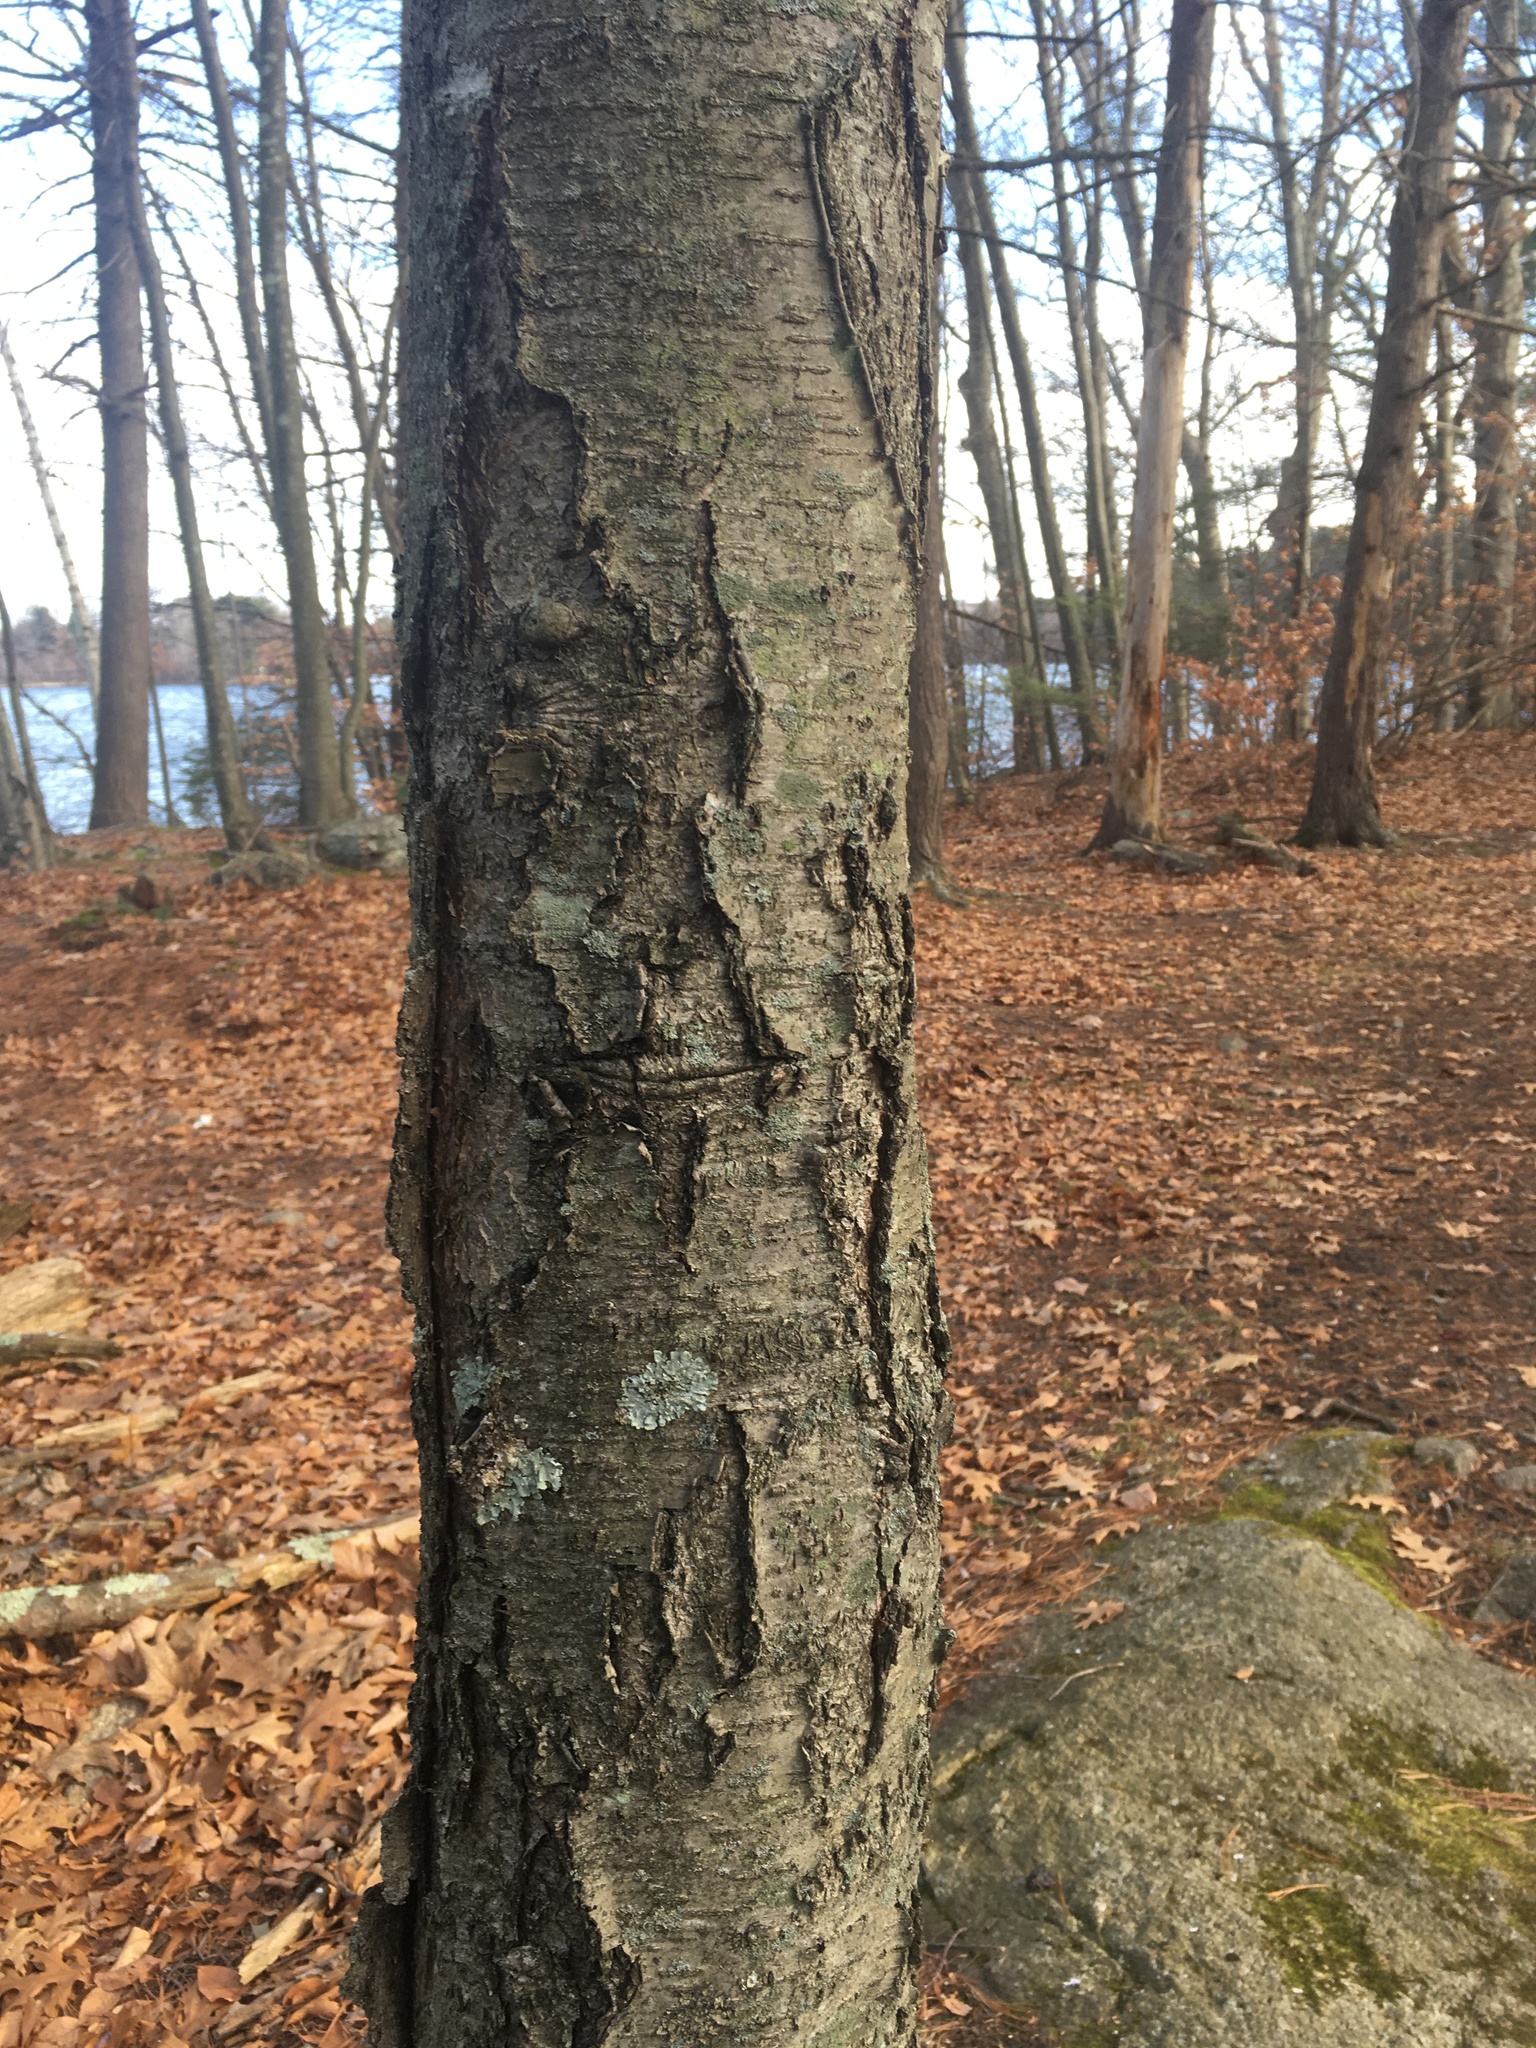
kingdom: Plantae
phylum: Tracheophyta
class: Magnoliopsida
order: Fagales
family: Betulaceae
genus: Betula
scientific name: Betula lenta
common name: Black birch
